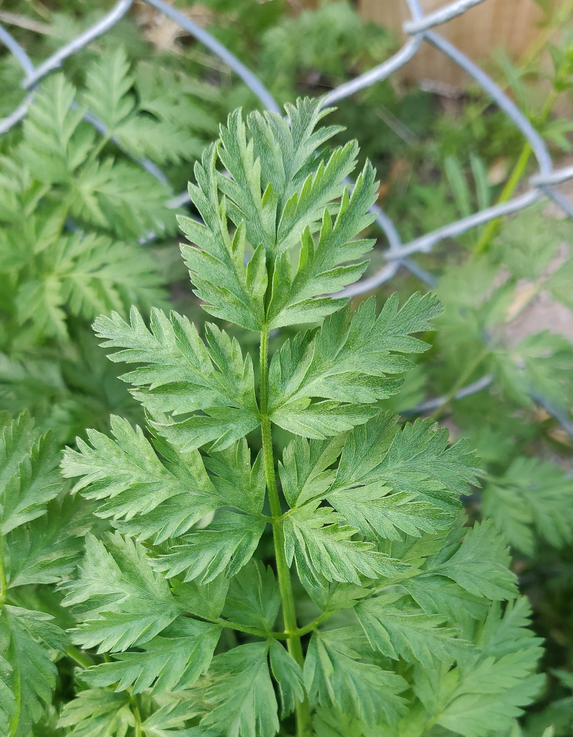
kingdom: Plantae
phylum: Tracheophyta
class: Magnoliopsida
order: Apiales
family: Apiaceae
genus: Conium
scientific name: Conium maculatum
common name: Hemlock
